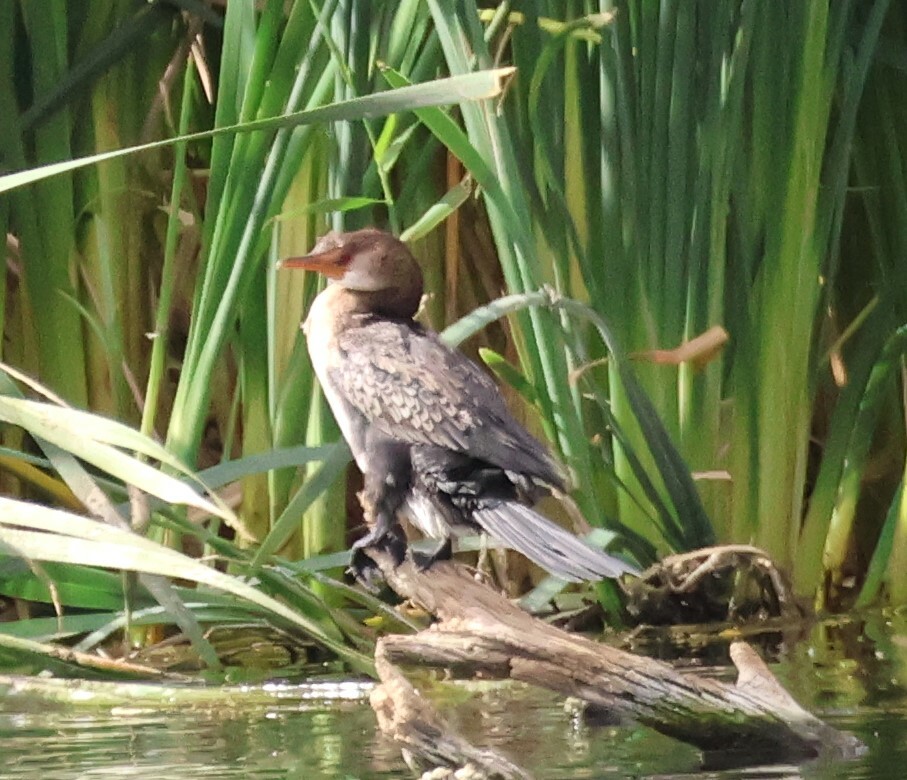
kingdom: Animalia
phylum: Chordata
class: Aves
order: Suliformes
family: Phalacrocoracidae
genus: Microcarbo
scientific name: Microcarbo africanus
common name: Long-tailed cormorant
